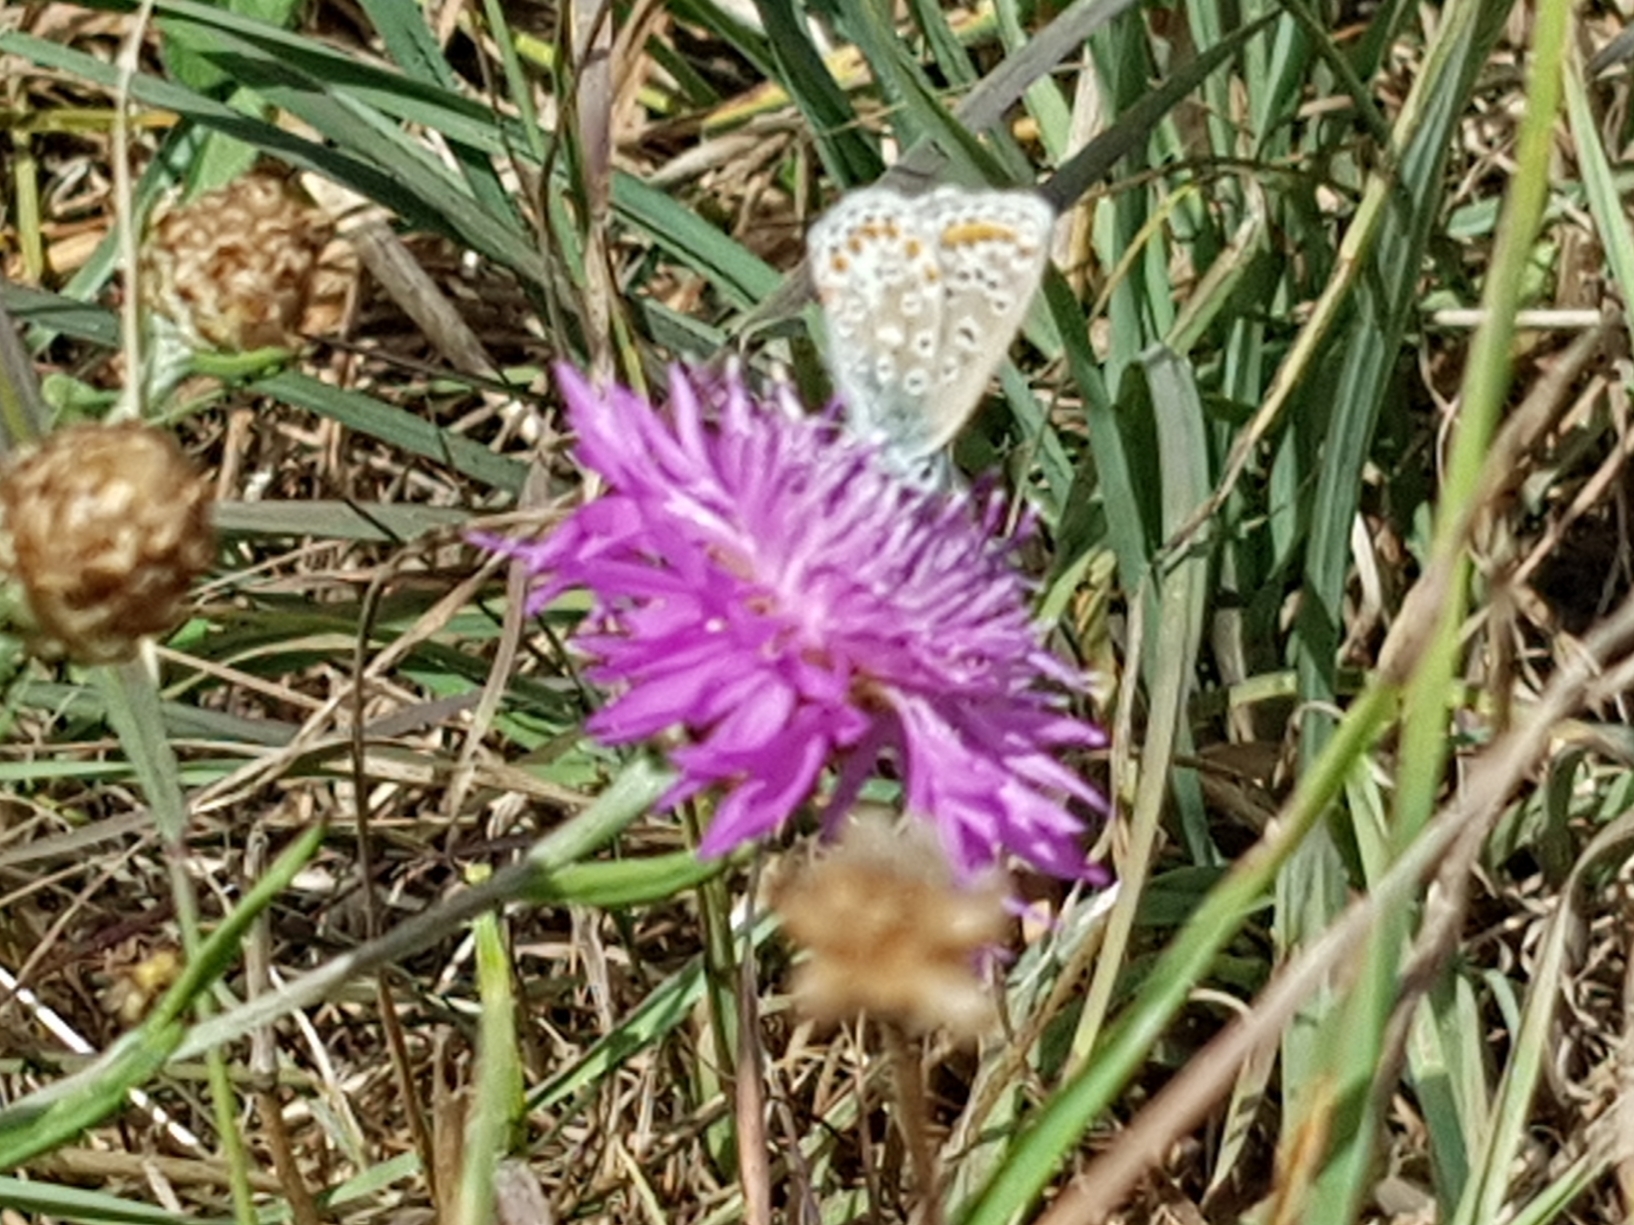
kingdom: Animalia
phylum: Arthropoda
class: Insecta
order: Lepidoptera
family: Lycaenidae
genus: Polyommatus
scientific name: Polyommatus icarus
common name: Common blue
